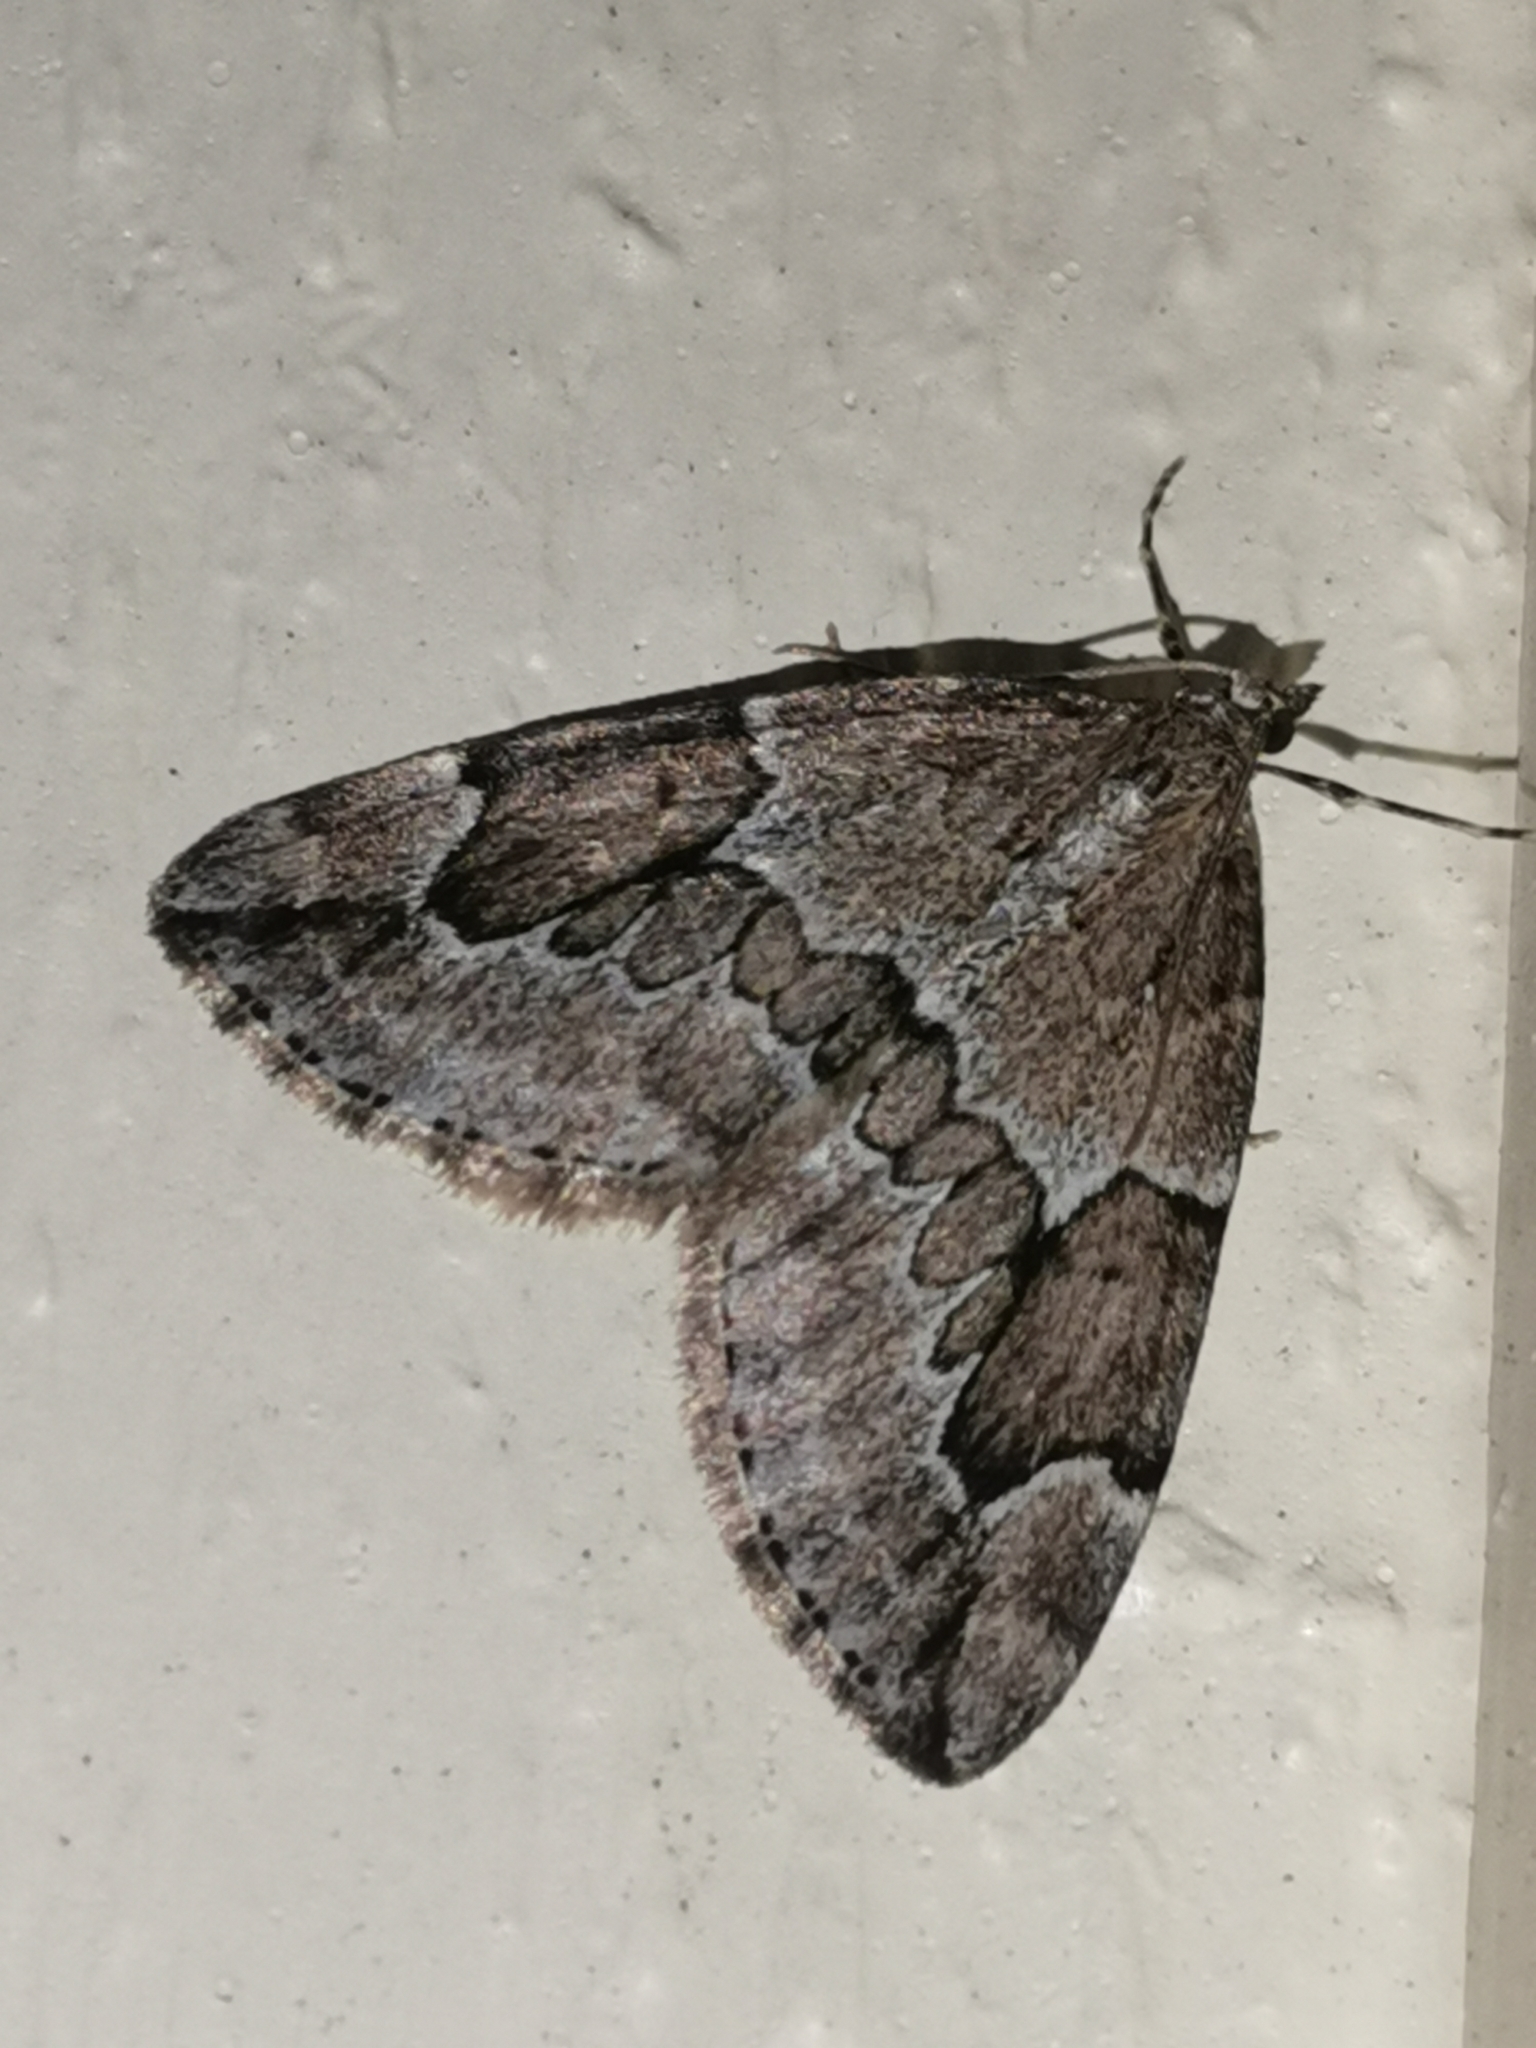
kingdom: Animalia
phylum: Arthropoda
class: Insecta
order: Lepidoptera
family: Geometridae
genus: Thera
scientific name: Thera juniperata
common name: Juniper carpet
